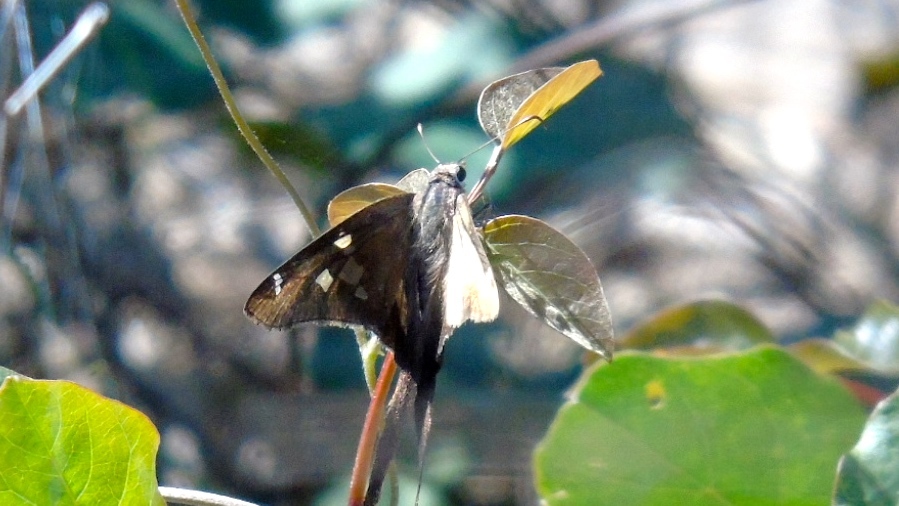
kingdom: Animalia
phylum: Arthropoda
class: Insecta
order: Lepidoptera
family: Hesperiidae
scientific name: Hesperiidae
